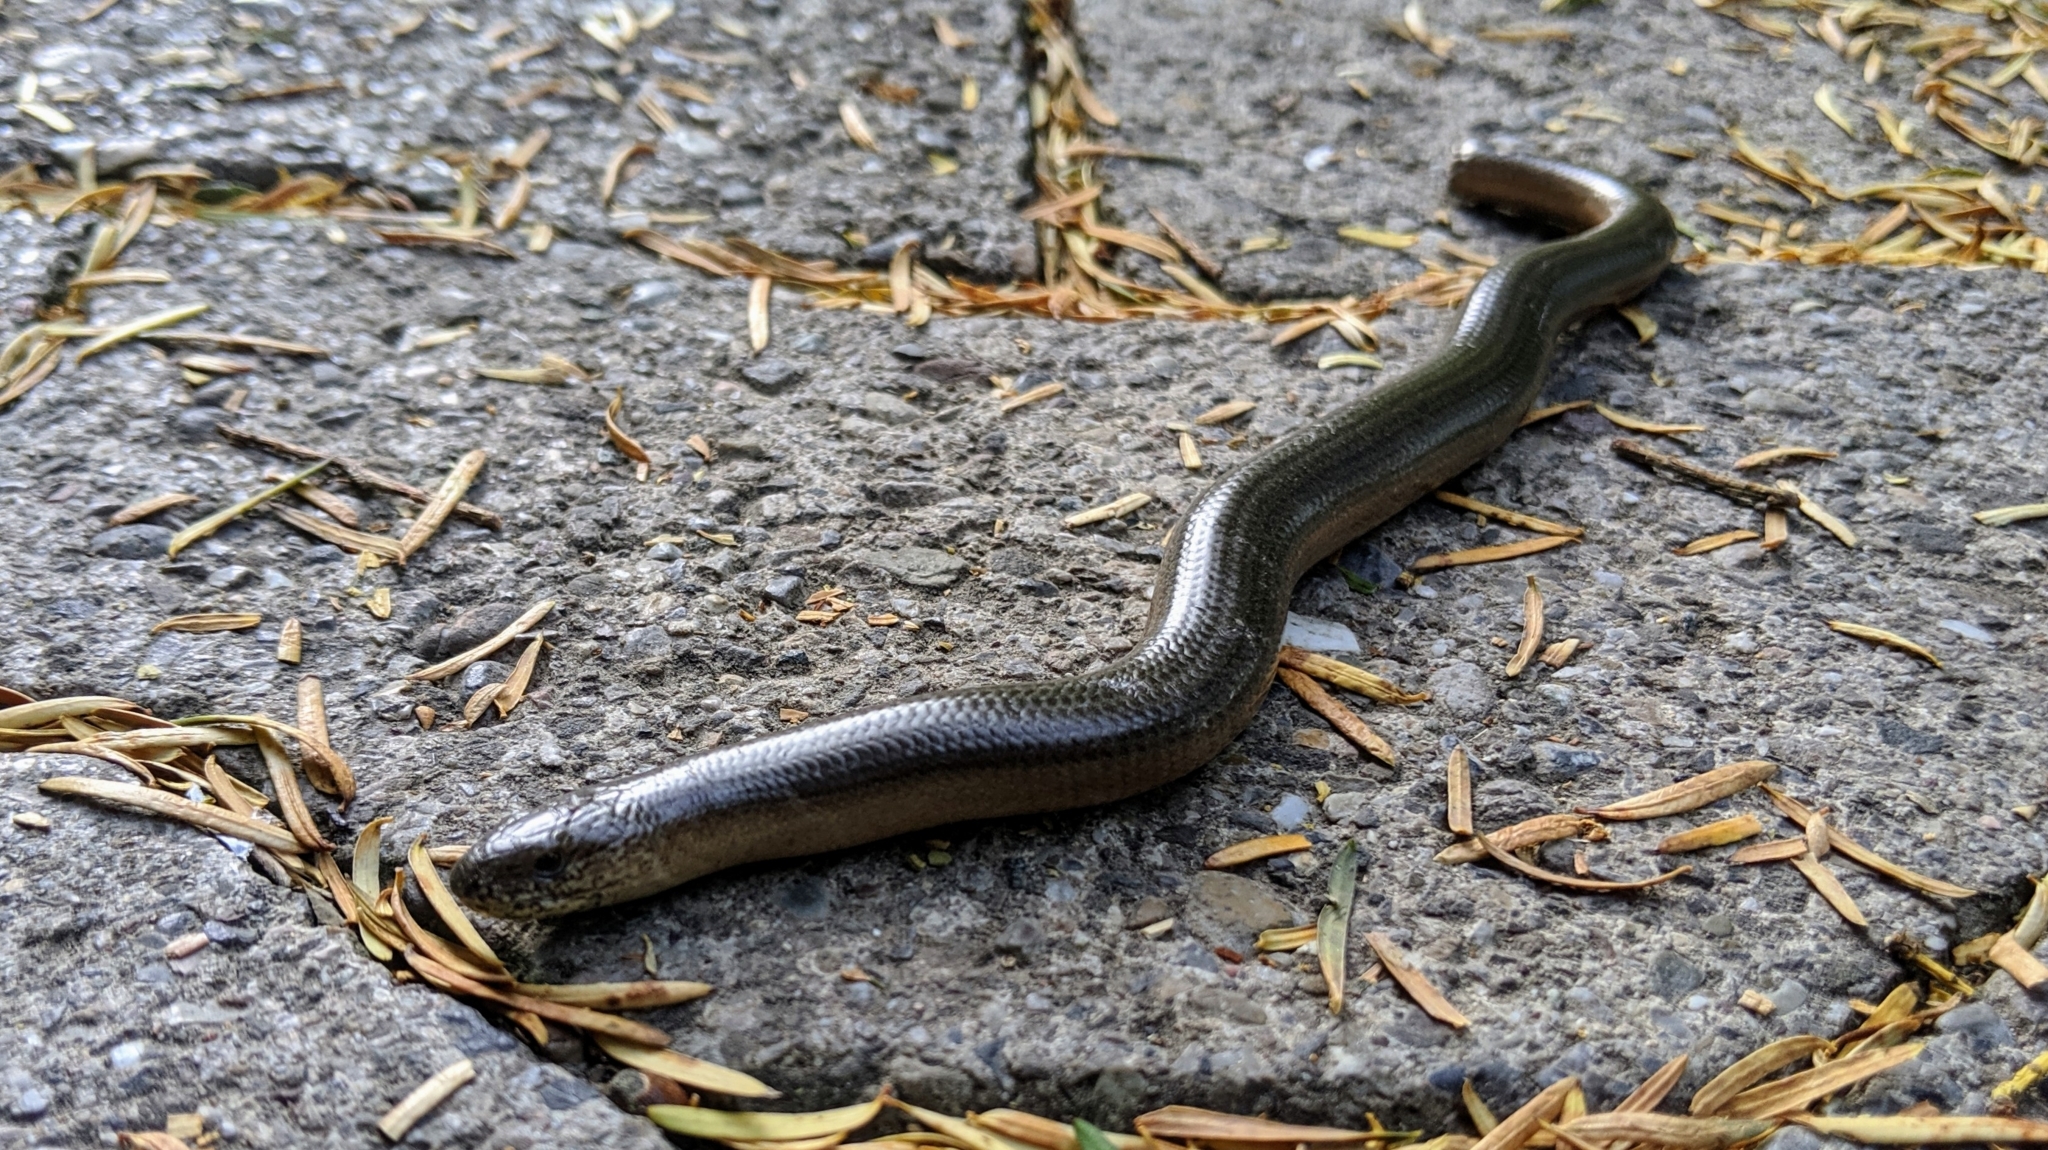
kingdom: Animalia
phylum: Chordata
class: Squamata
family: Anguidae
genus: Anguis
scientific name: Anguis fragilis
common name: Slow worm
